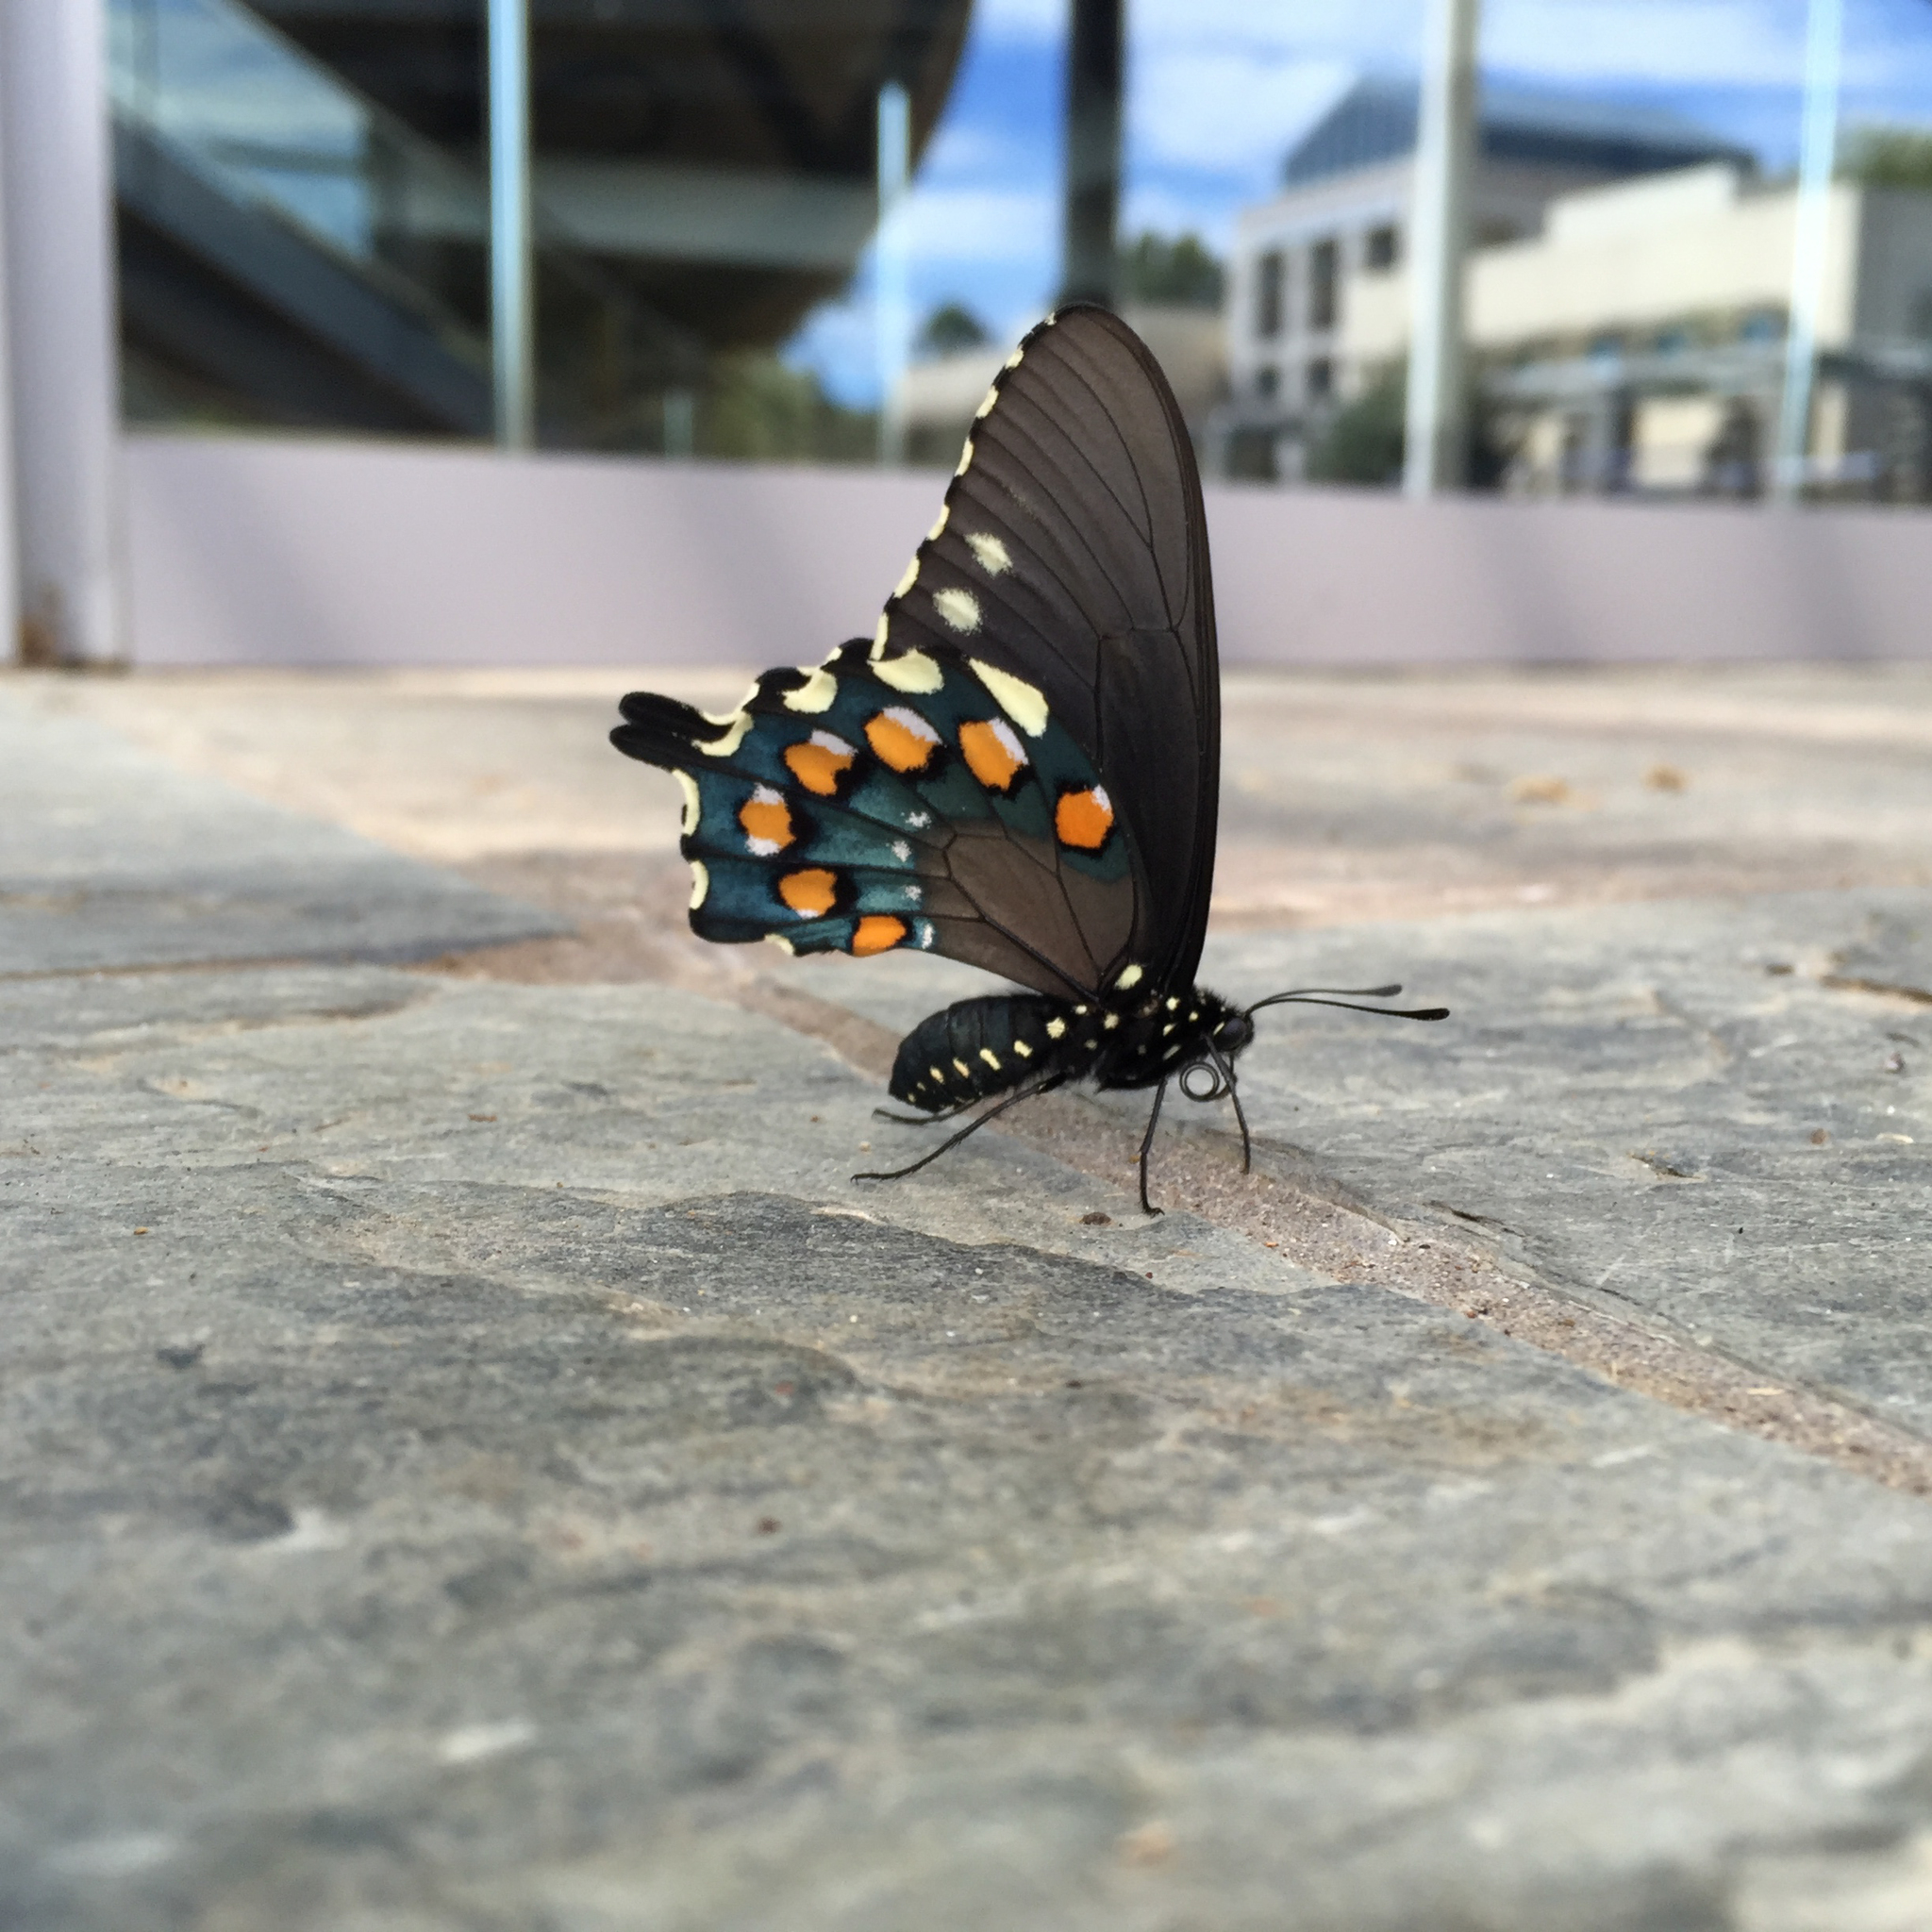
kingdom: Animalia
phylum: Arthropoda
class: Insecta
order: Lepidoptera
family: Papilionidae
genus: Battus
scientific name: Battus philenor
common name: Pipevine swallowtail
